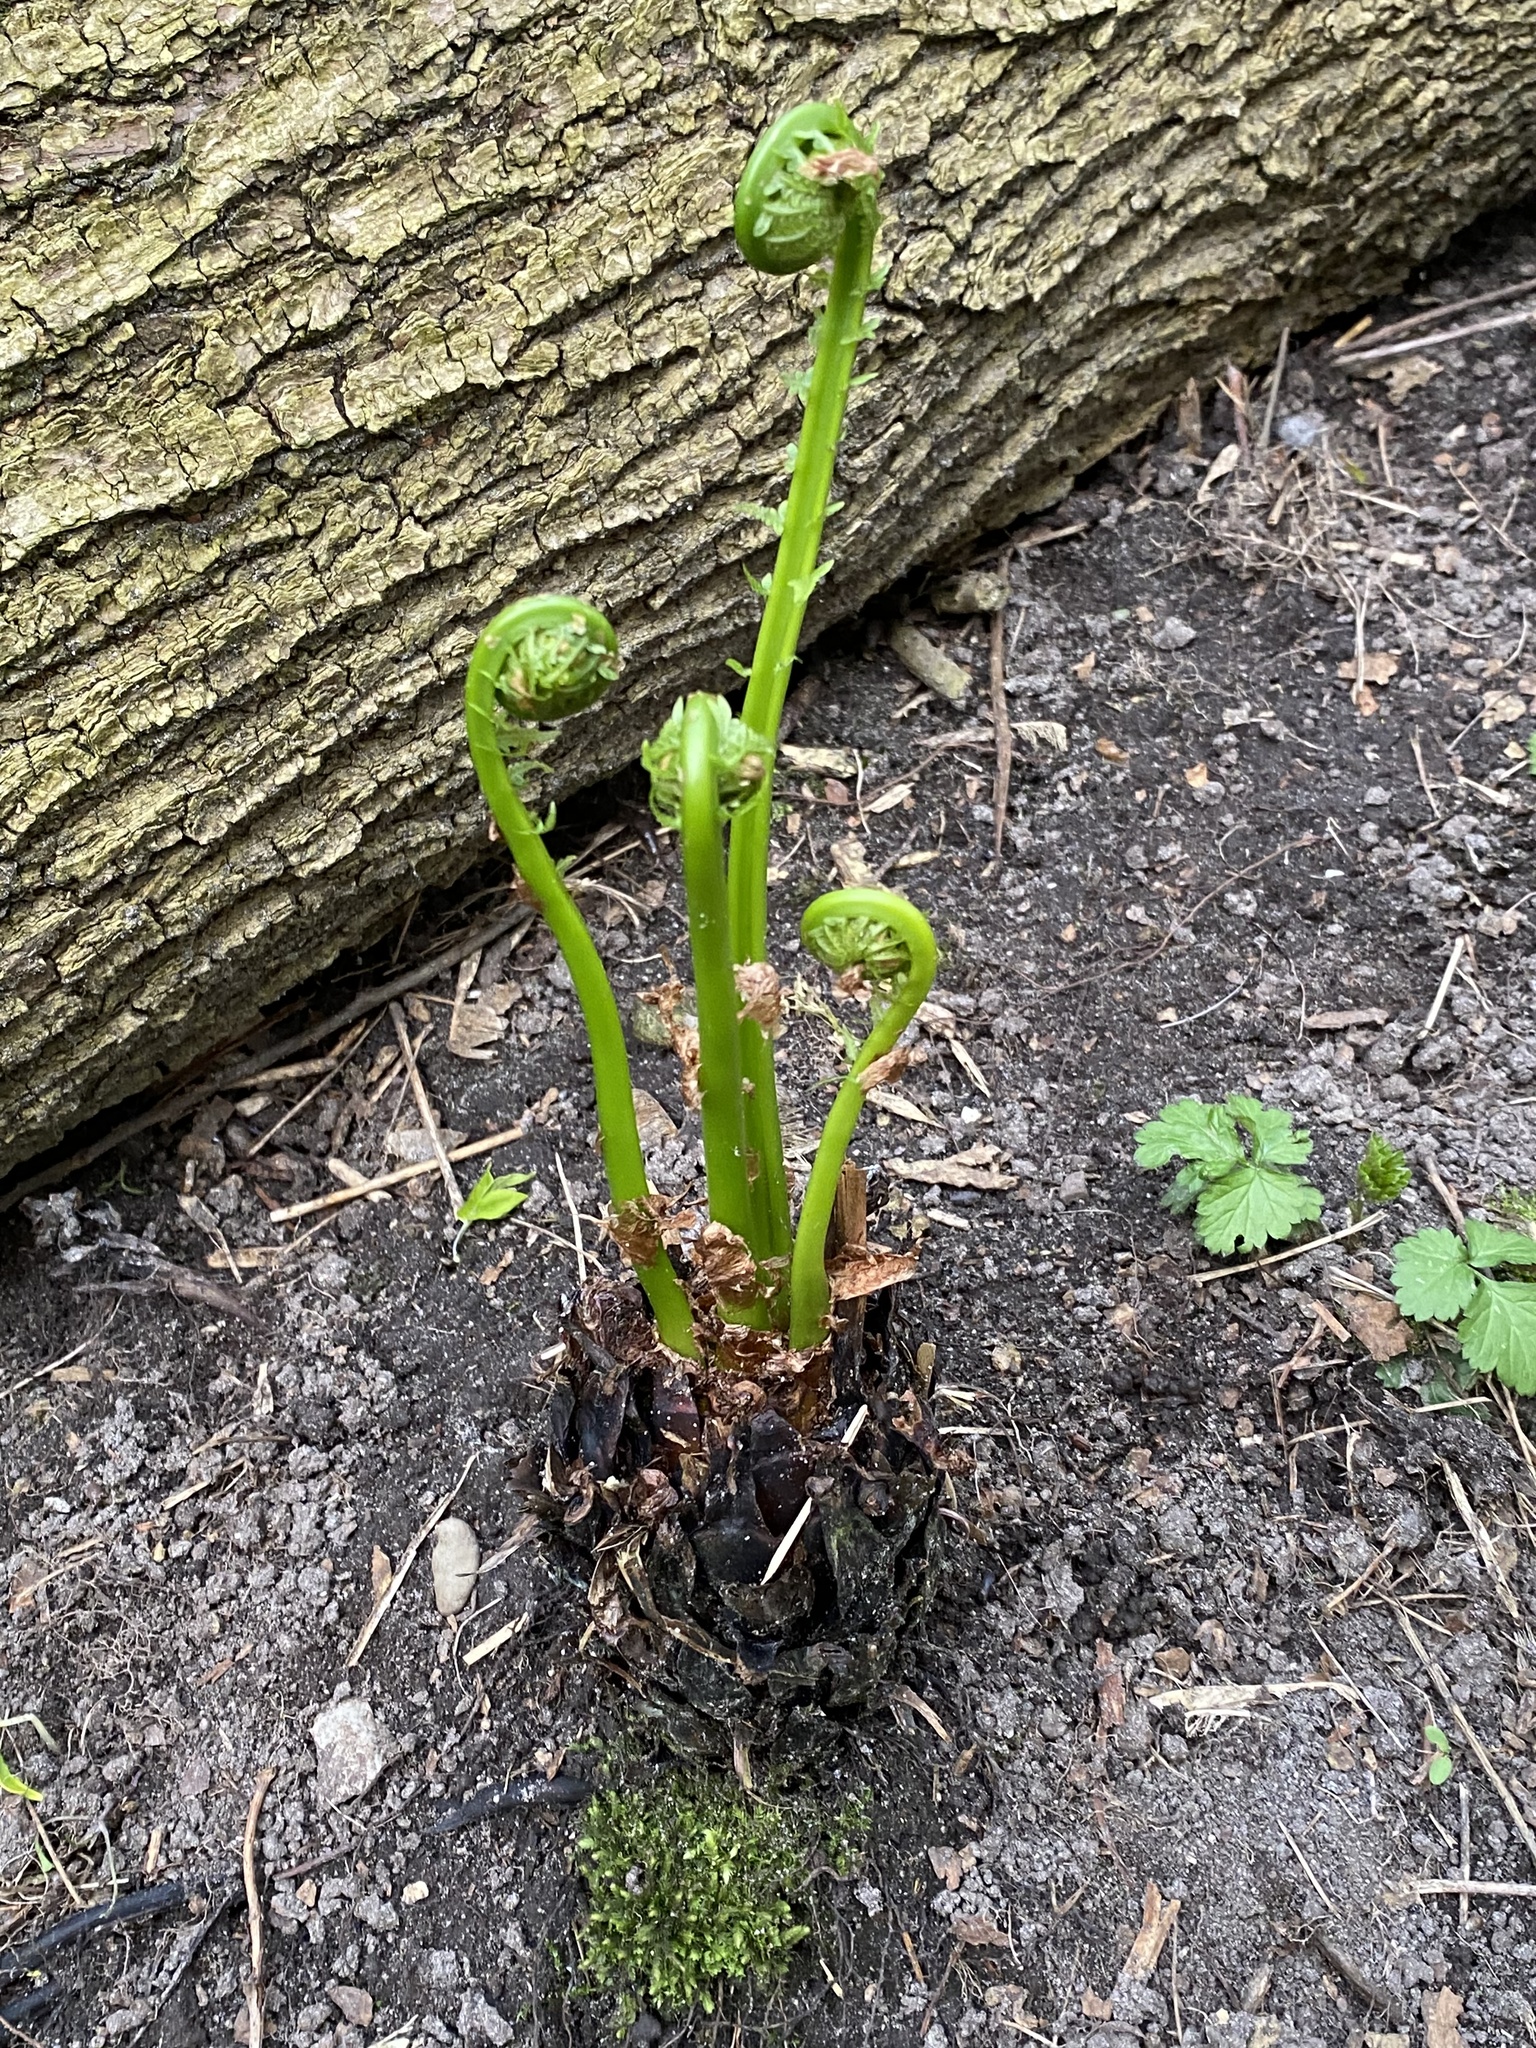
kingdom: Plantae
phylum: Tracheophyta
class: Polypodiopsida
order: Polypodiales
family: Onocleaceae
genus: Matteuccia
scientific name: Matteuccia struthiopteris
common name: Ostrich fern
